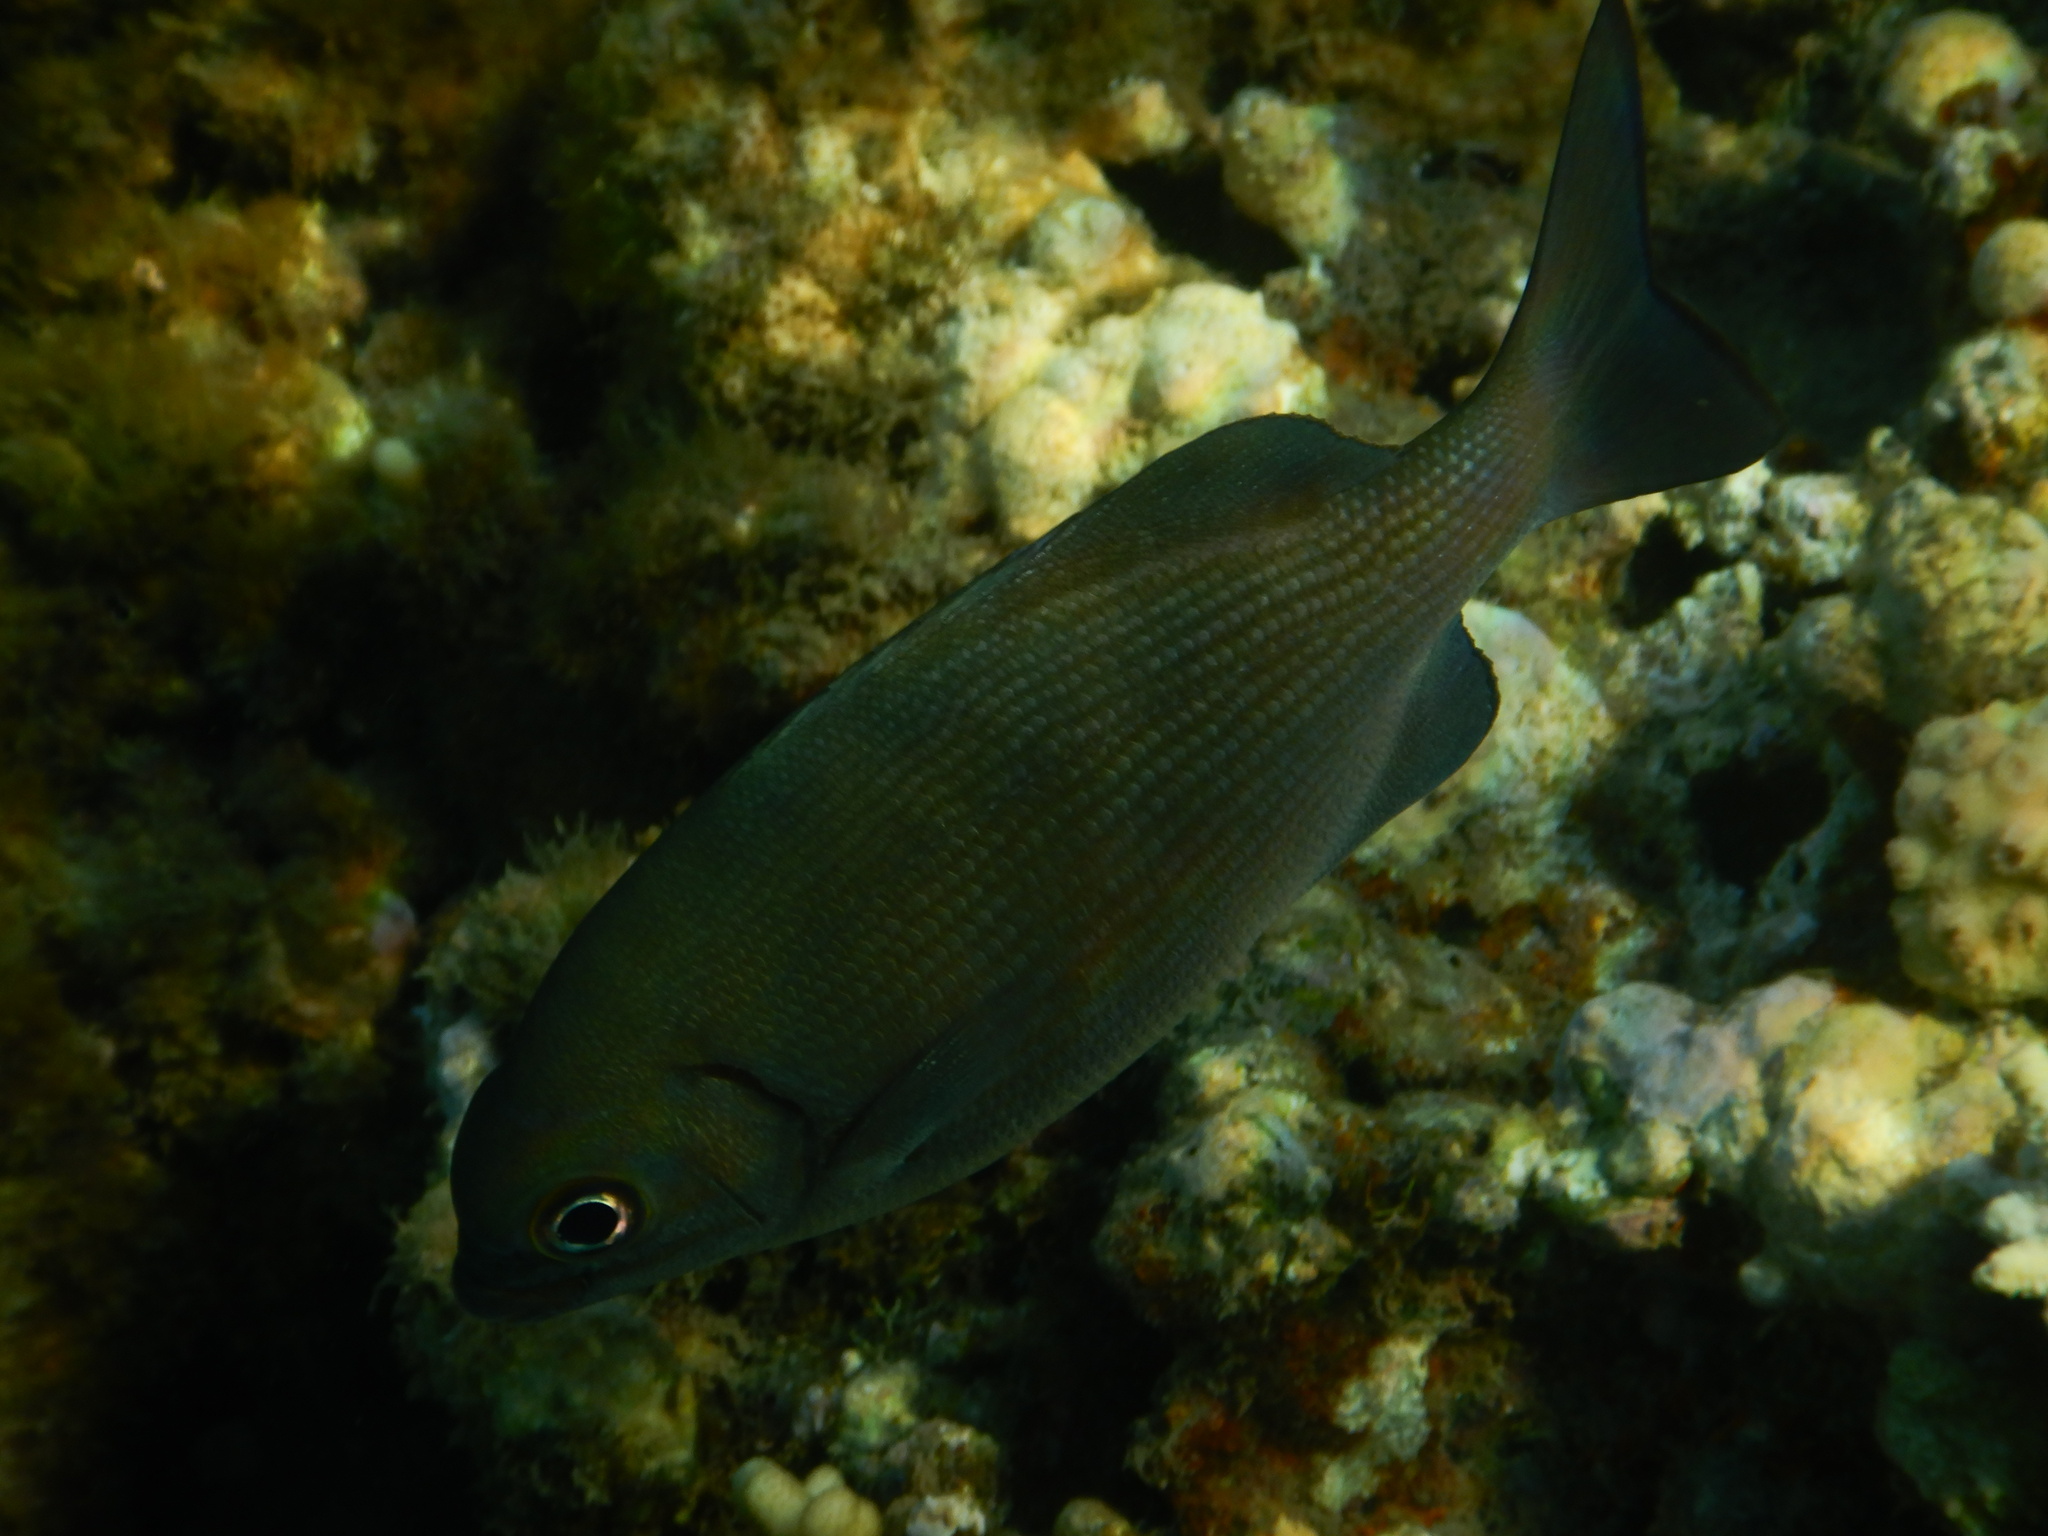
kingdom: Animalia
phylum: Chordata
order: Perciformes
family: Kyphosidae
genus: Kyphosus
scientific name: Kyphosus cinerascens
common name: Topsail drummer
